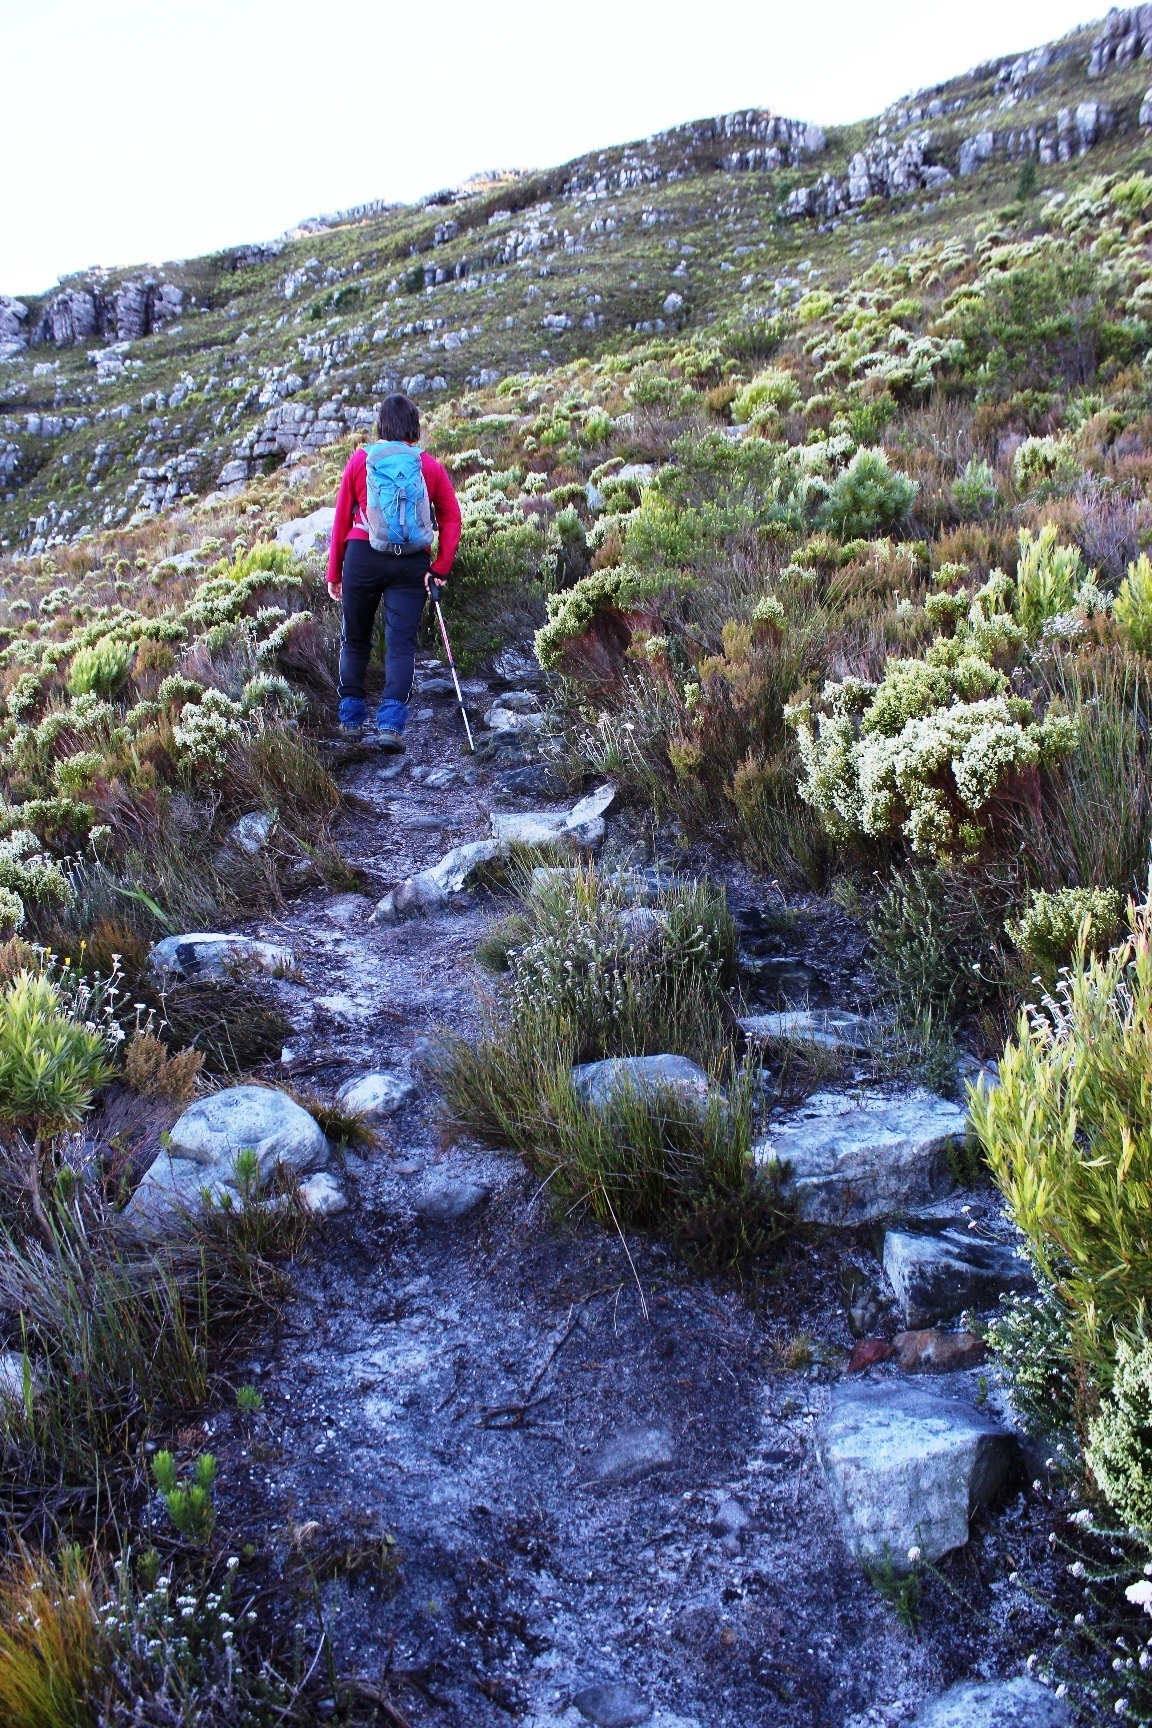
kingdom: Plantae
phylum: Tracheophyta
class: Magnoliopsida
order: Ericales
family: Ericaceae
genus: Erica
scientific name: Erica calycina
